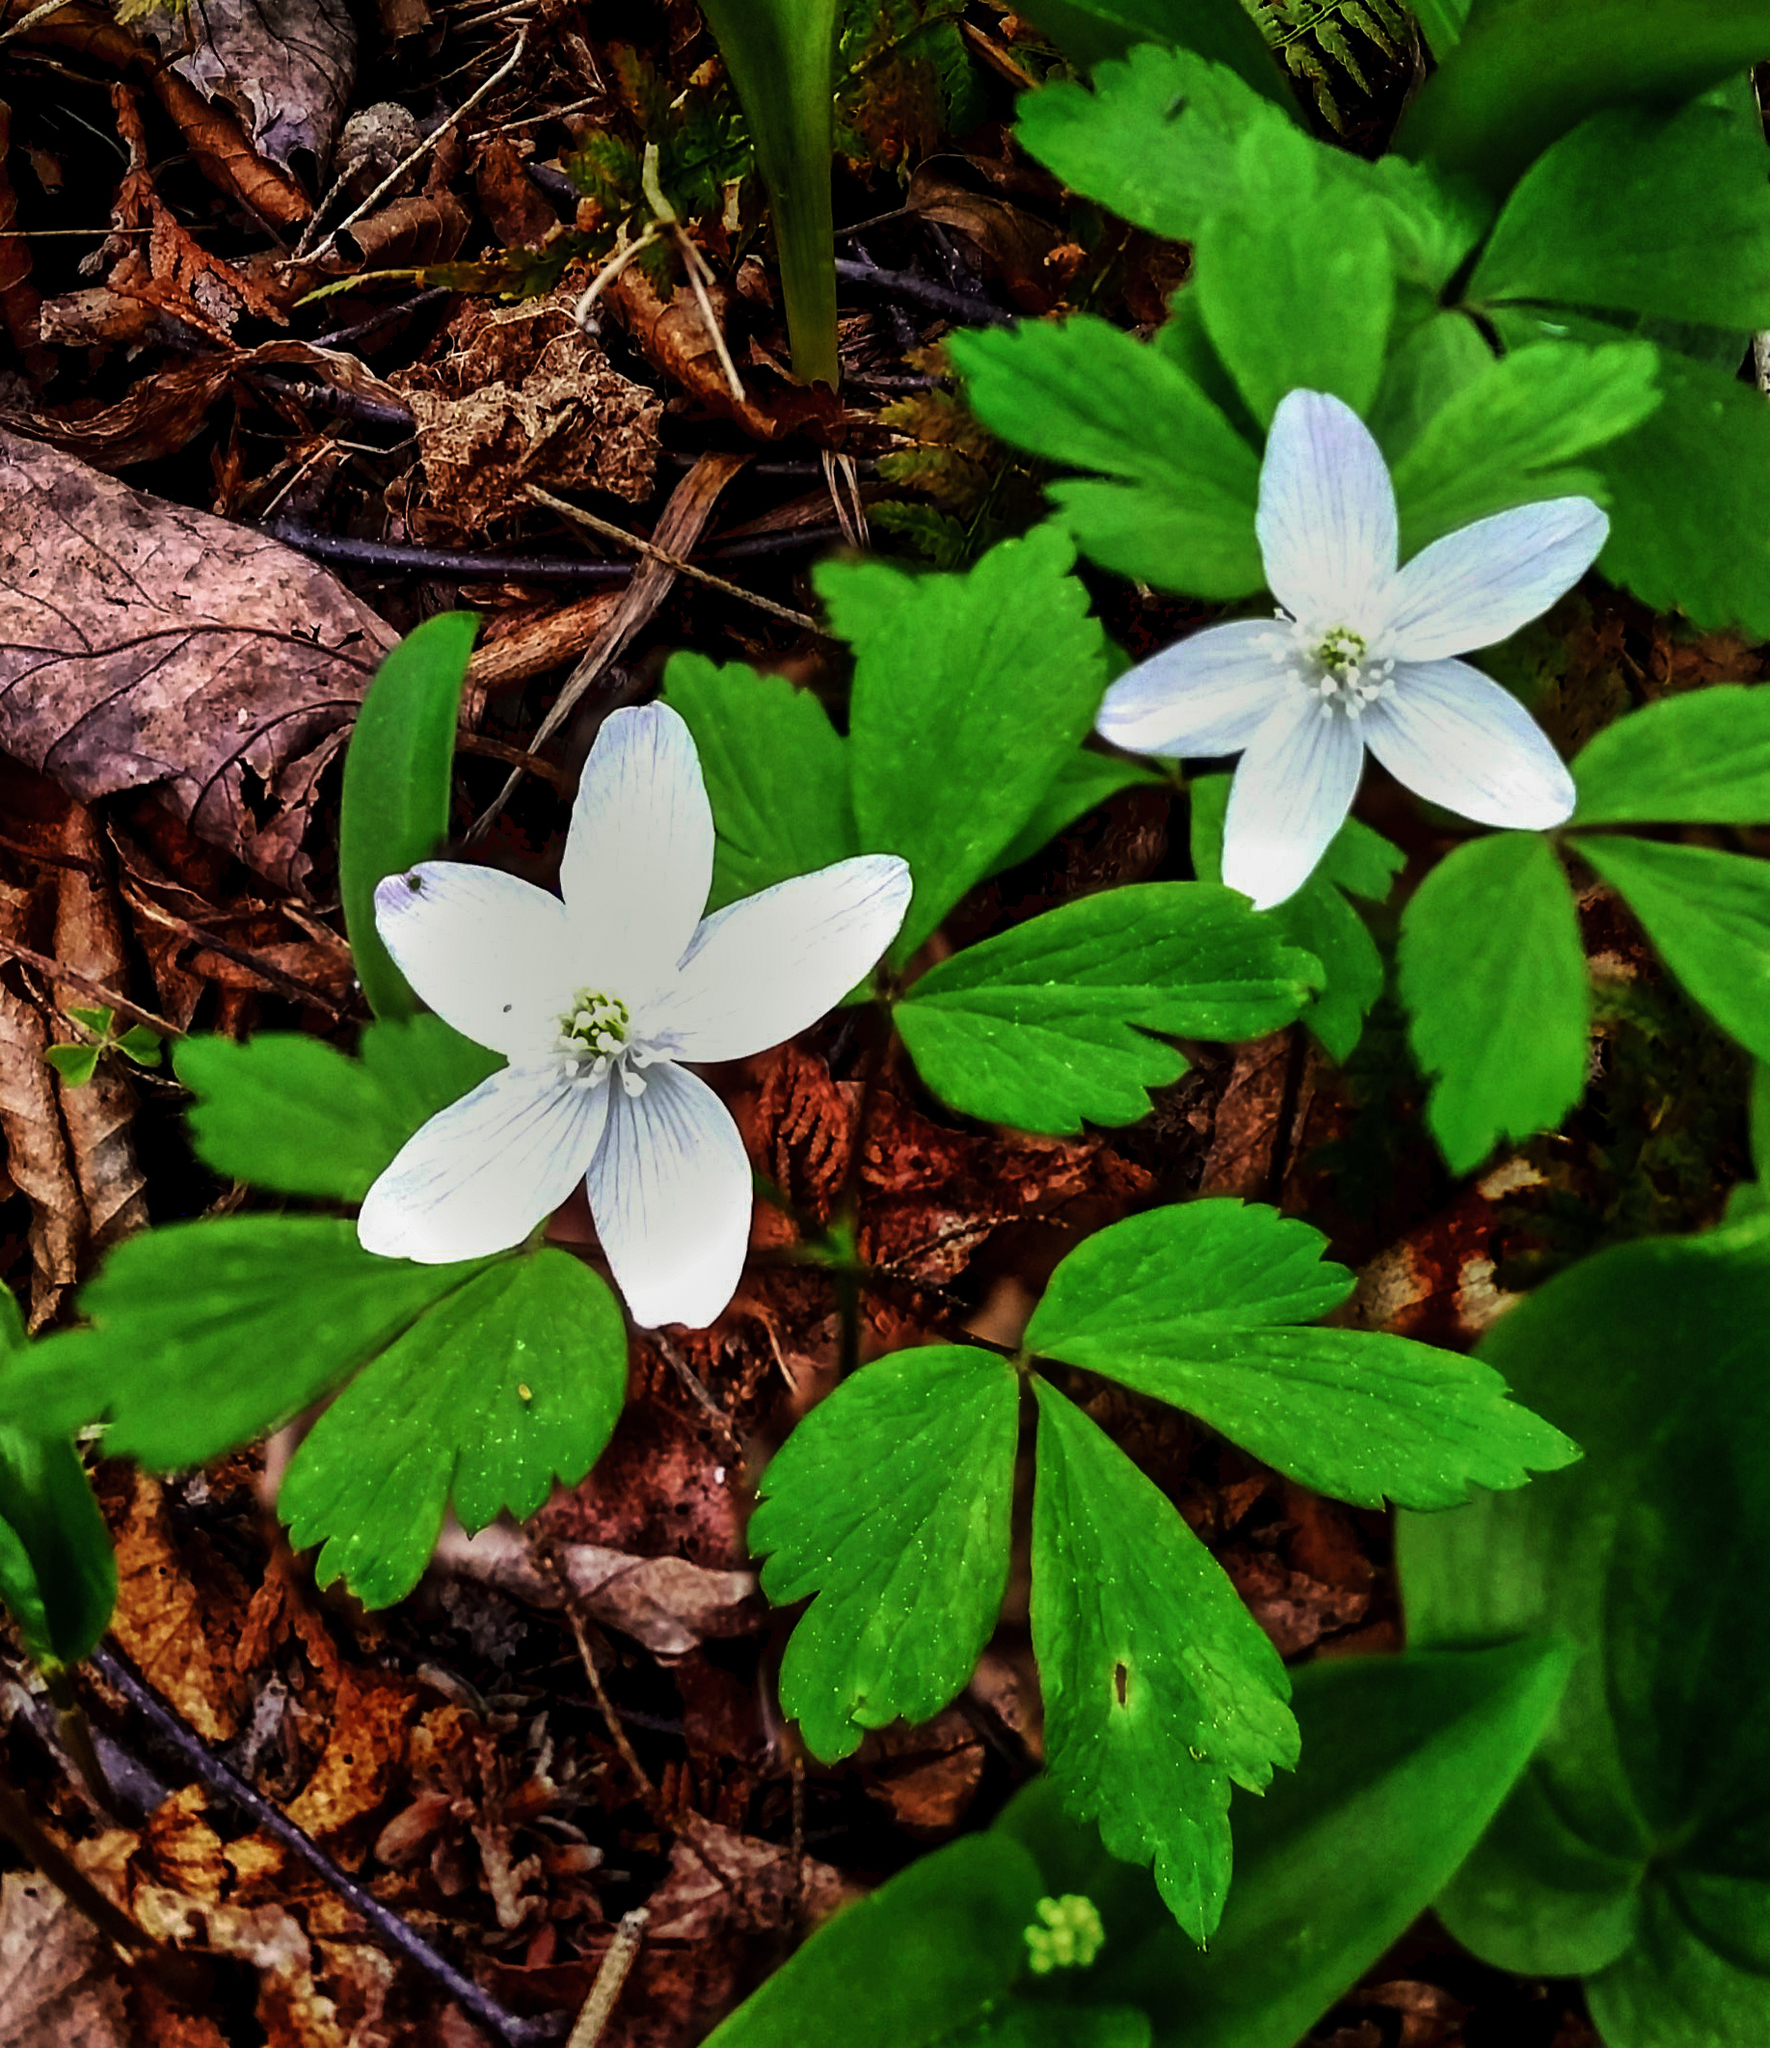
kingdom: Plantae
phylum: Tracheophyta
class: Magnoliopsida
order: Ranunculales
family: Ranunculaceae
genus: Anemone
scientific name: Anemone quinquefolia
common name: Wood anemone
